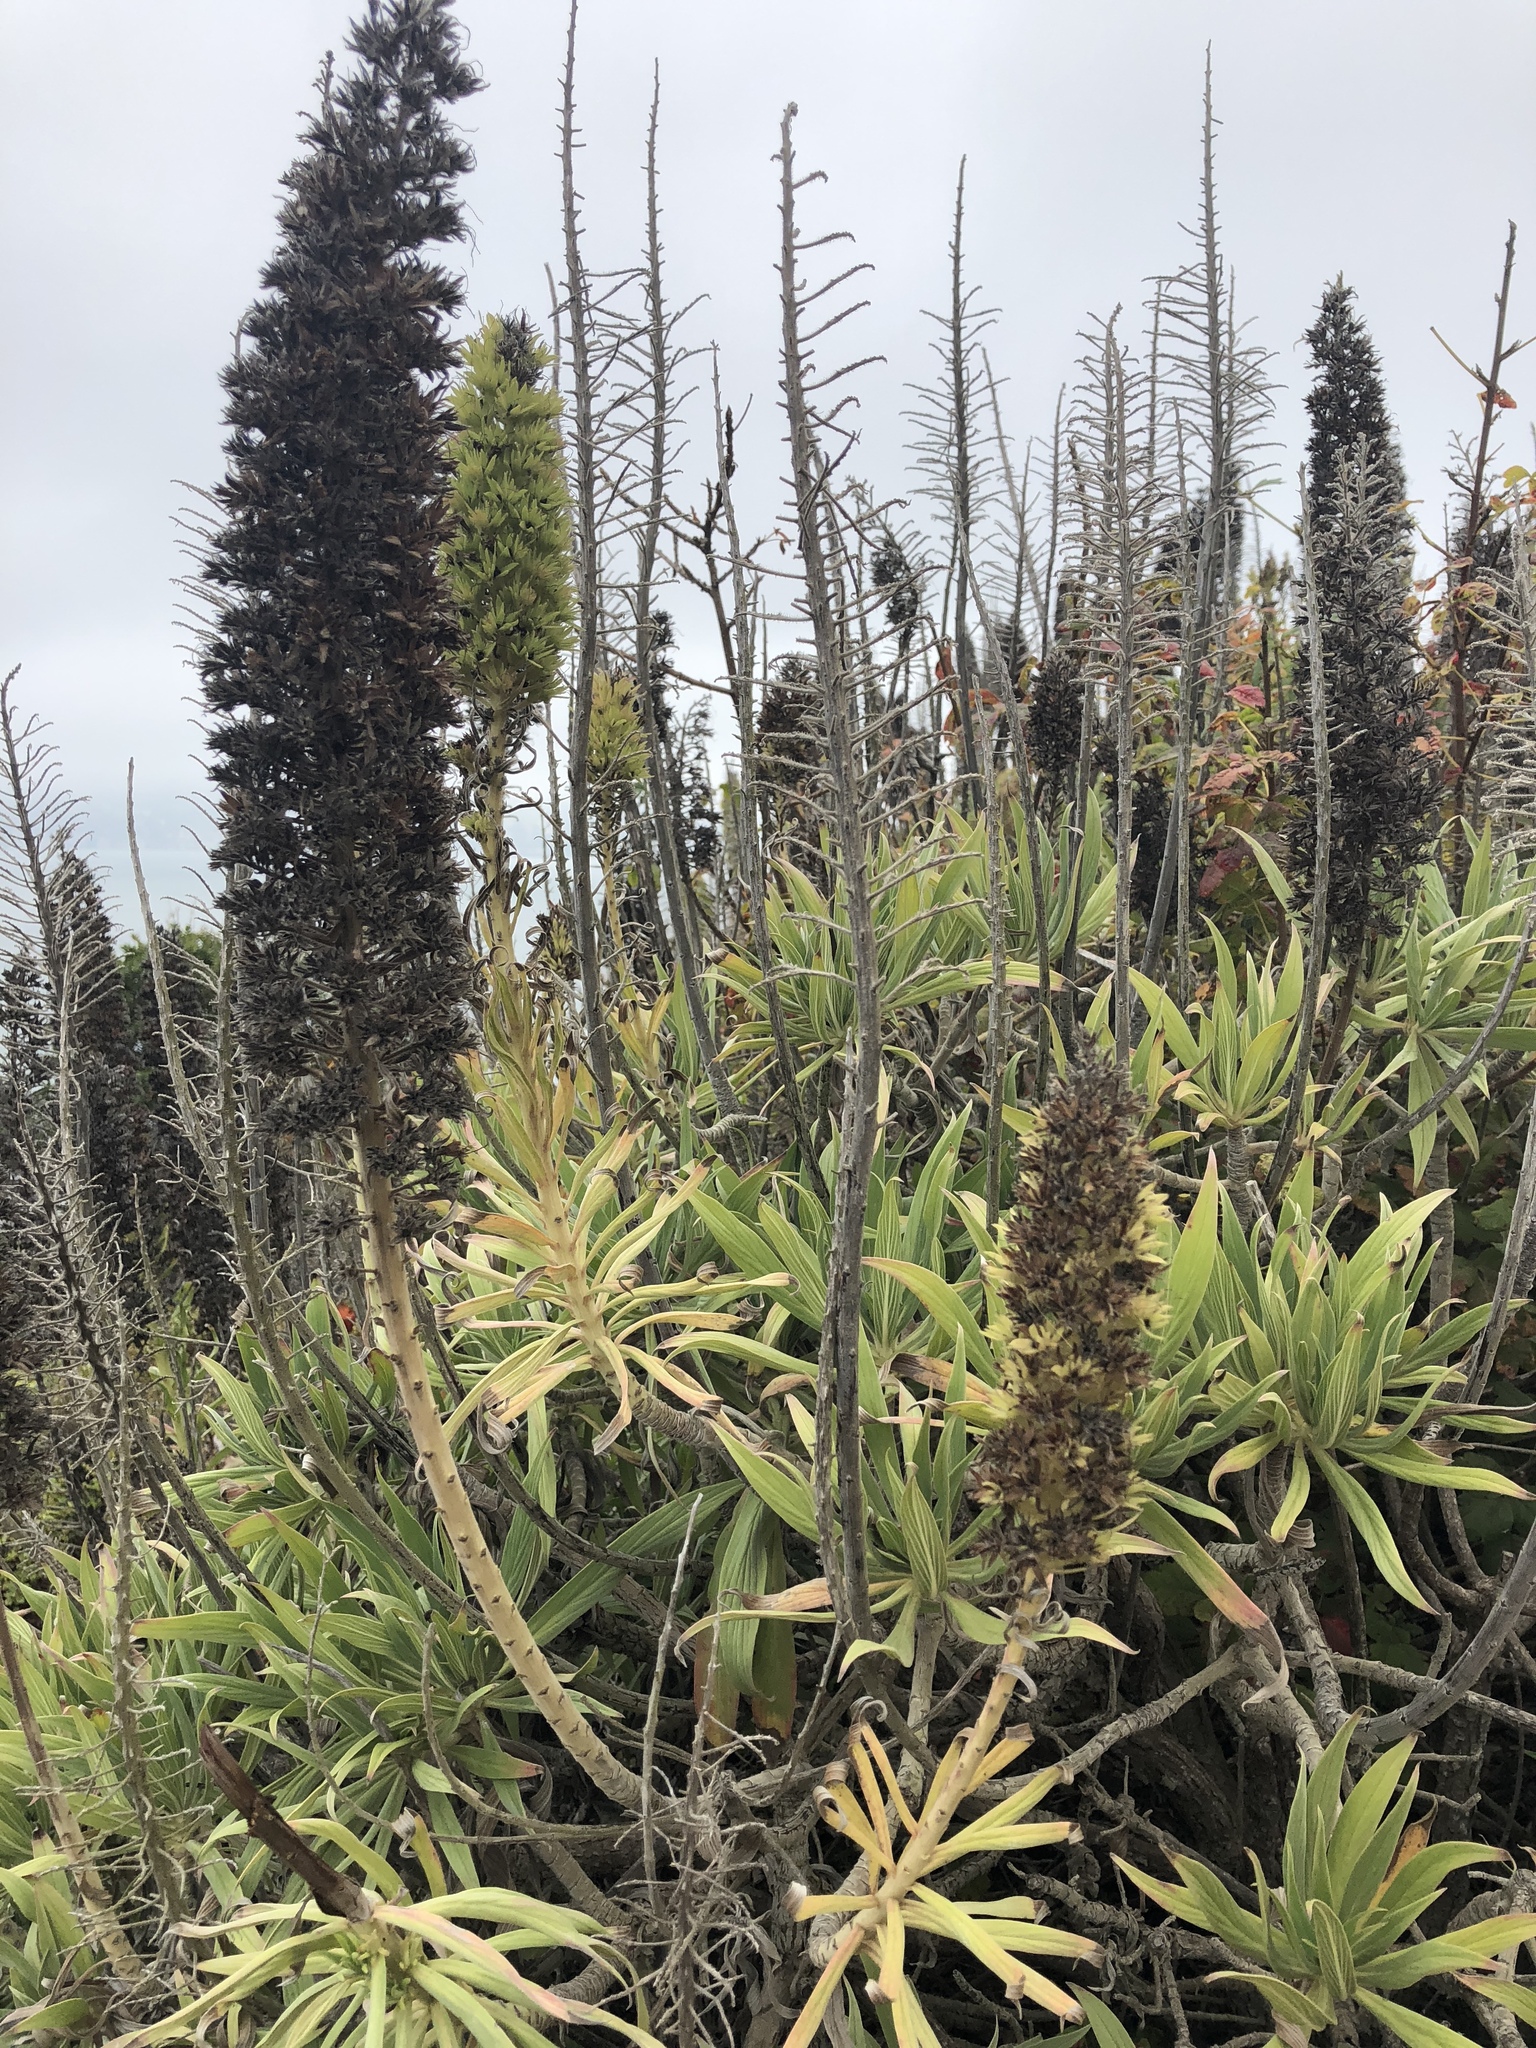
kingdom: Plantae
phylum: Tracheophyta
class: Magnoliopsida
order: Boraginales
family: Boraginaceae
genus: Echium
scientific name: Echium candicans
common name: Pride of madeira
